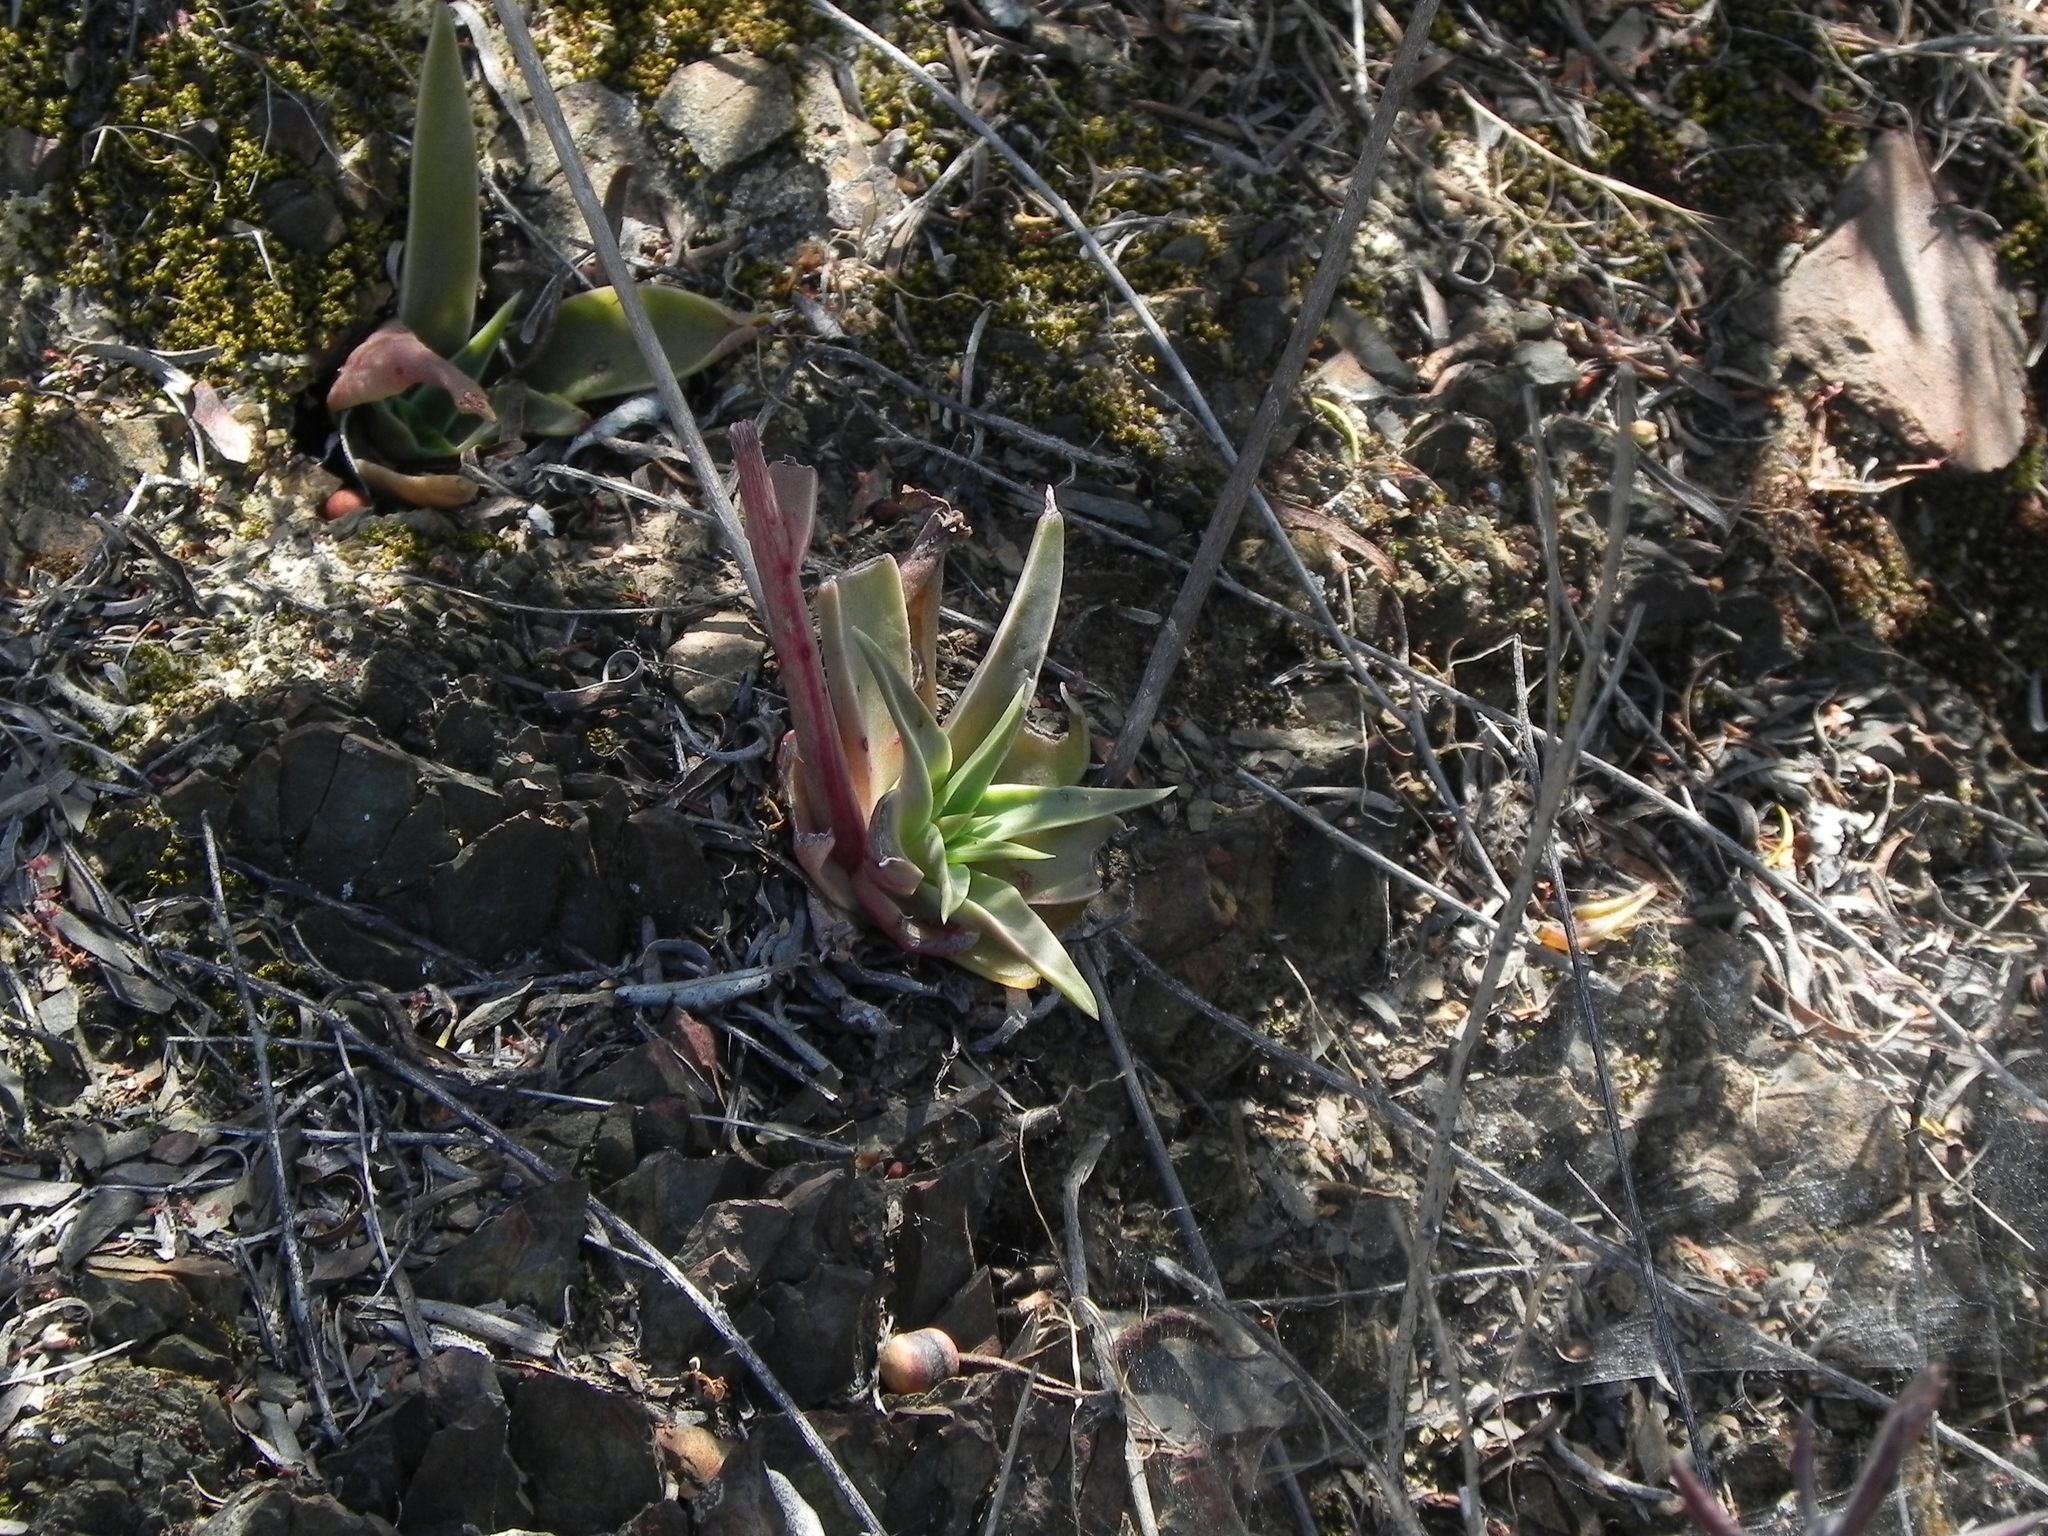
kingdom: Plantae
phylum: Tracheophyta
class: Magnoliopsida
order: Saxifragales
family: Crassulaceae
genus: Dudleya
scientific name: Dudleya lanceolata
